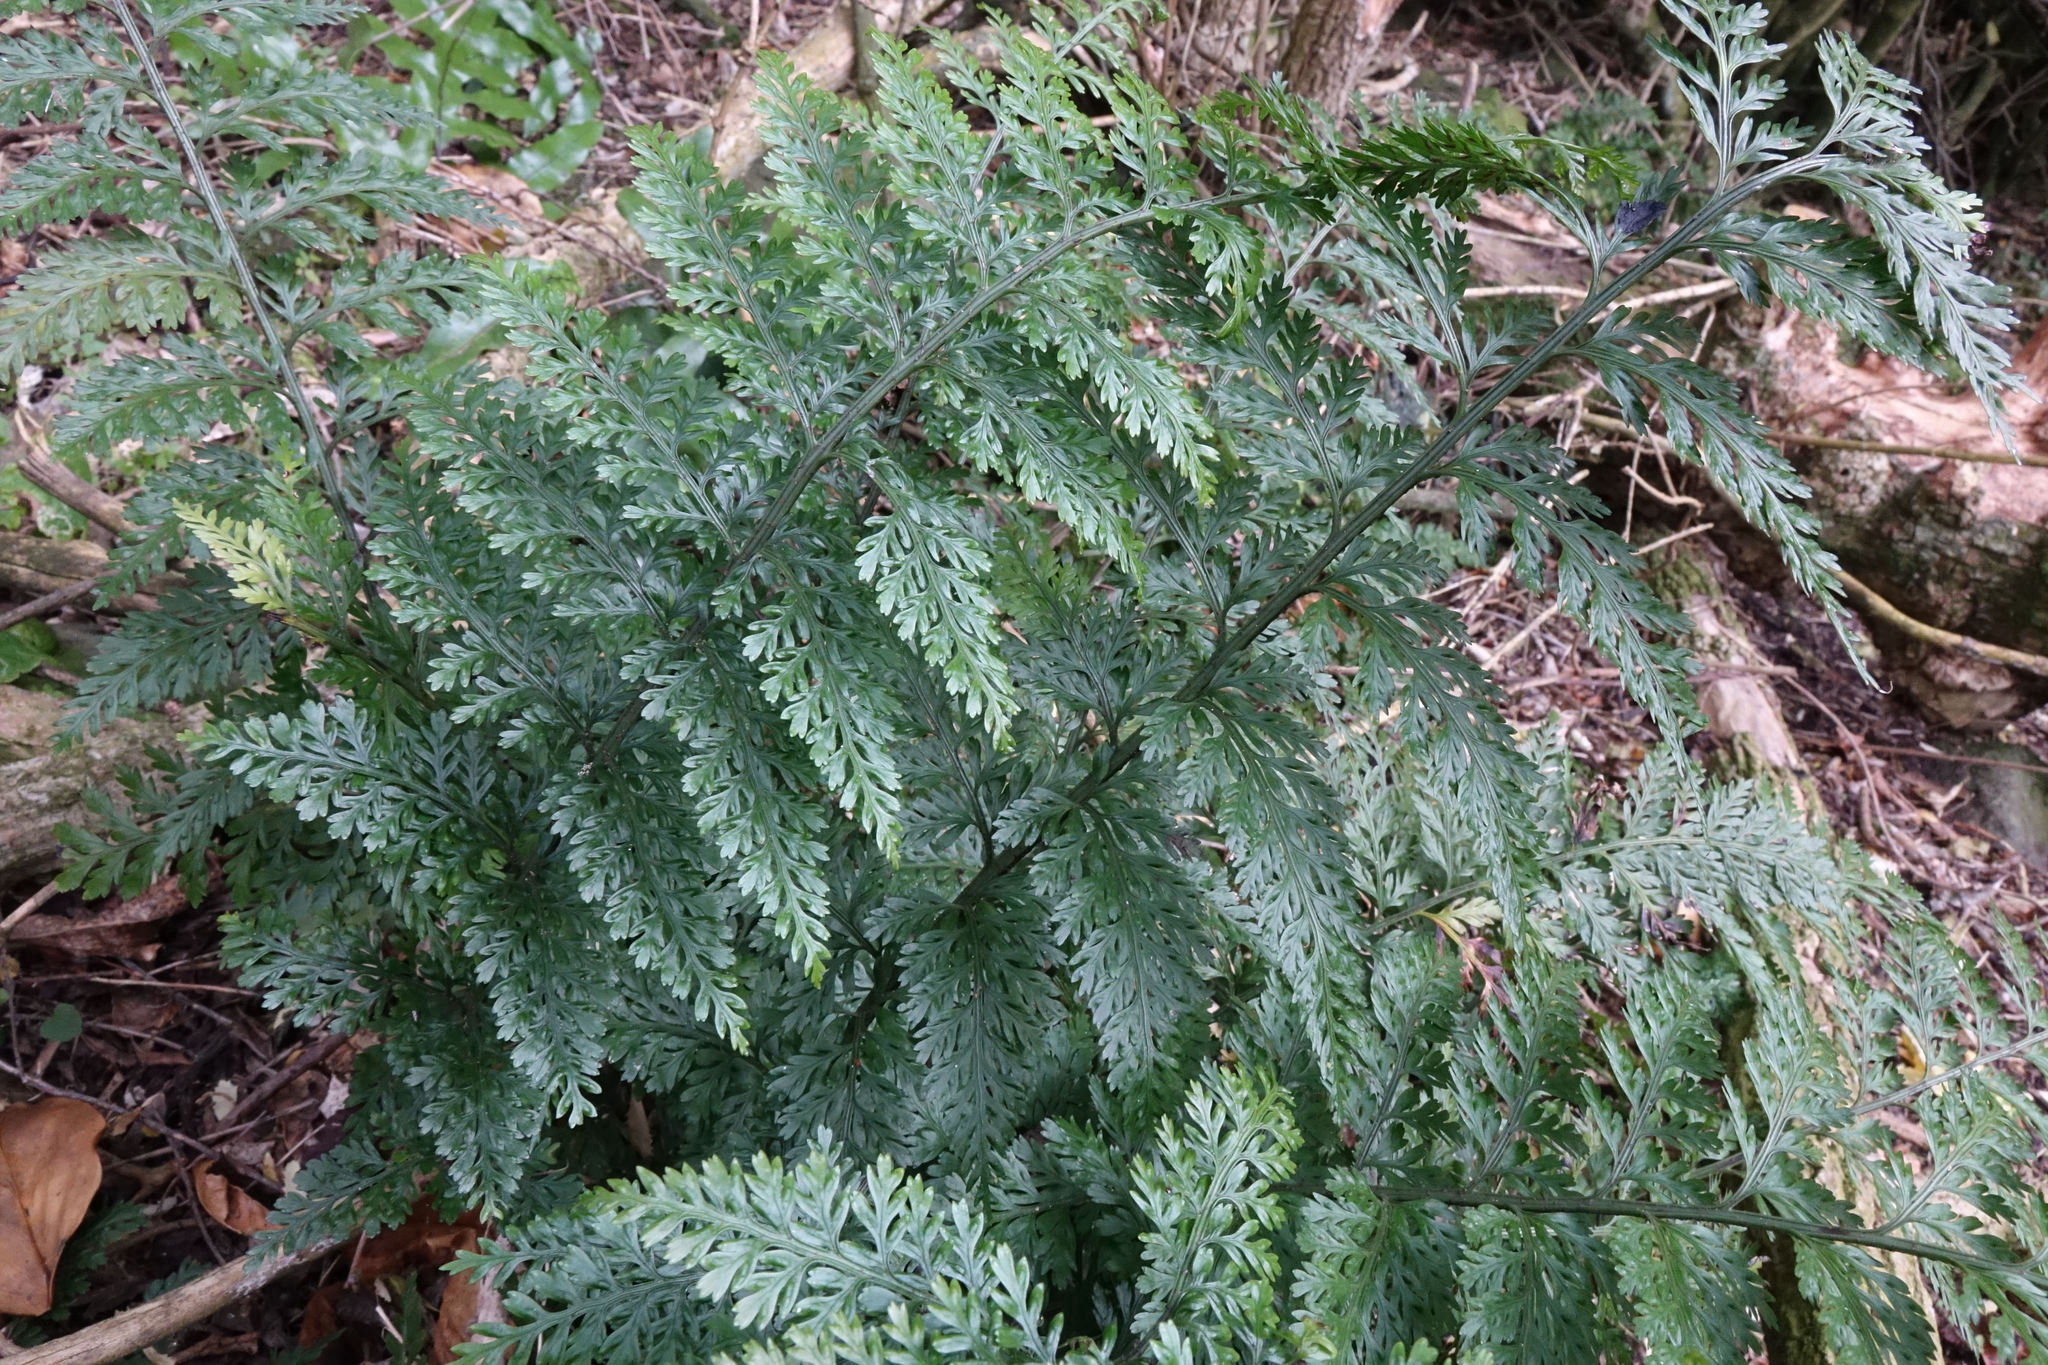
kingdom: Plantae
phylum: Tracheophyta
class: Polypodiopsida
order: Polypodiales
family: Aspleniaceae
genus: Asplenium
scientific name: Asplenium
